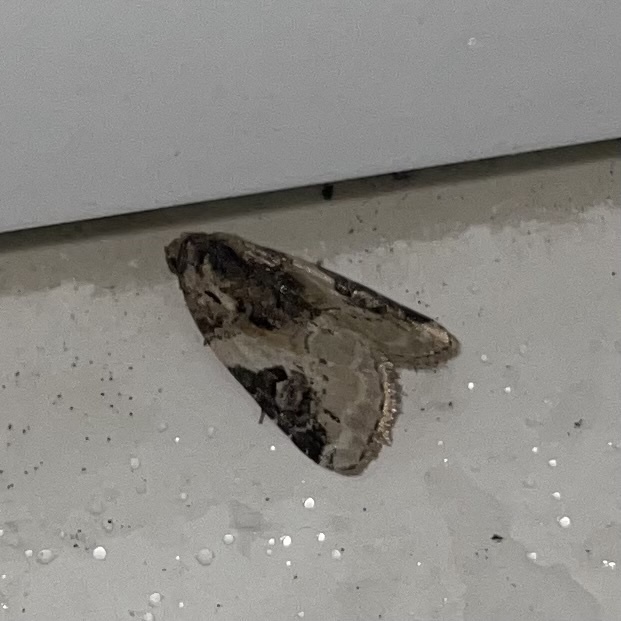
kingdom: Animalia
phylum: Arthropoda
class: Insecta
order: Lepidoptera
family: Noctuidae
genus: Pseudeustrotia
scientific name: Pseudeustrotia carneola
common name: Pink-barred lithacodia moth
